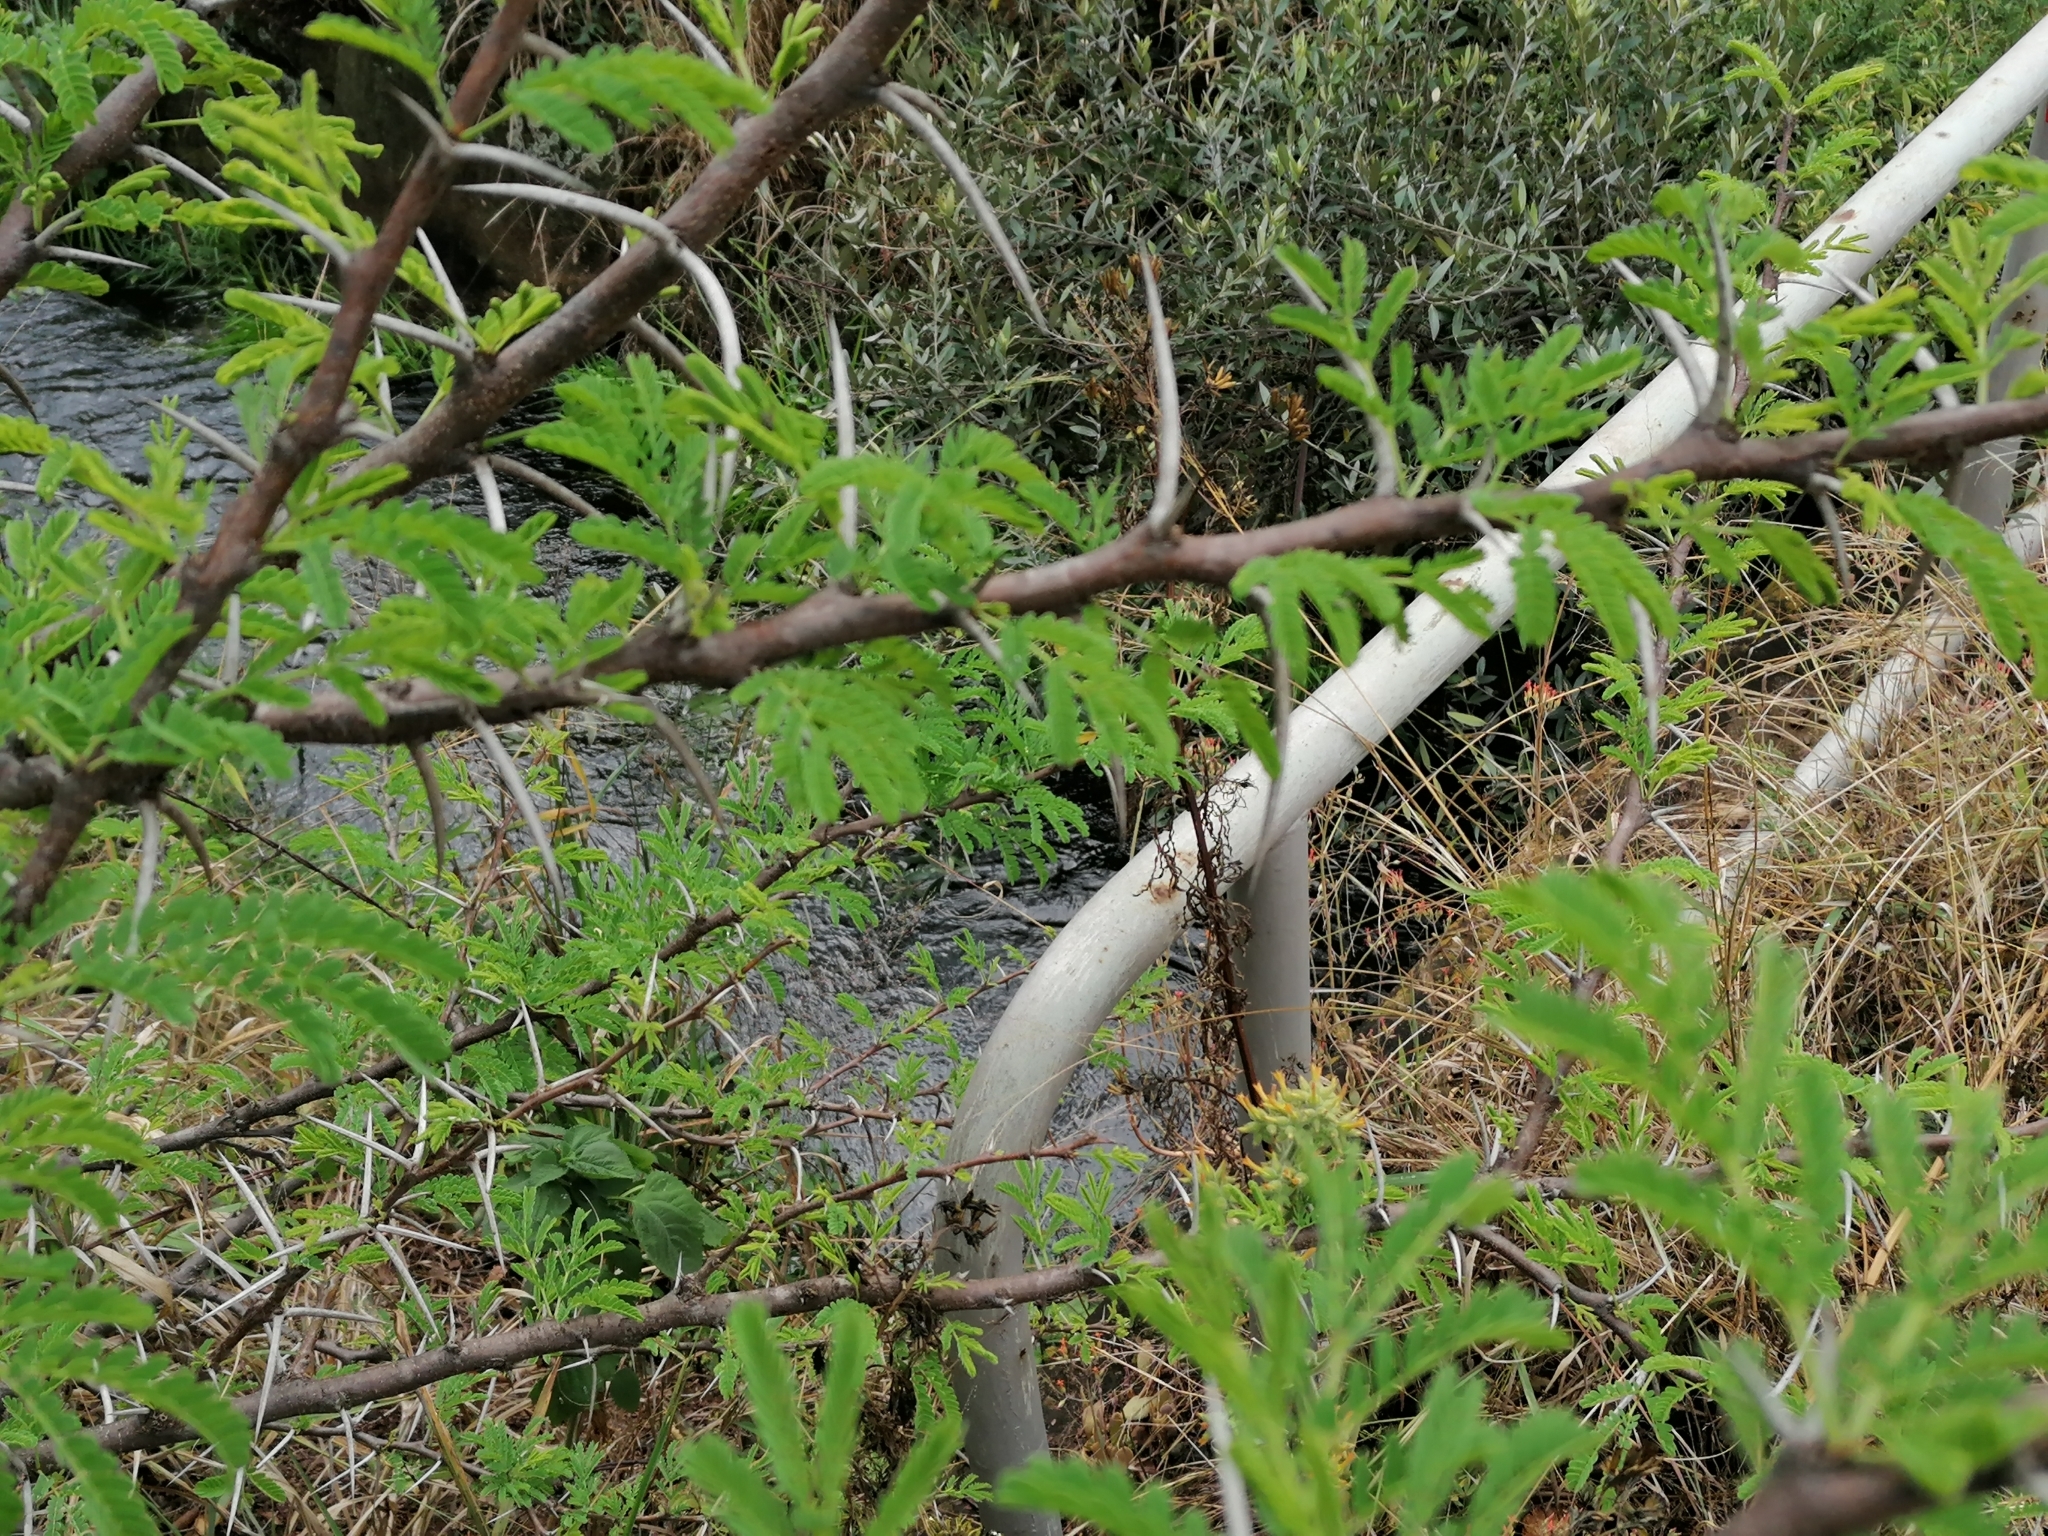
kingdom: Plantae
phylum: Tracheophyta
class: Magnoliopsida
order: Fabales
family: Fabaceae
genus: Vachellia
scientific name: Vachellia karroo
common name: Sweet thorn
